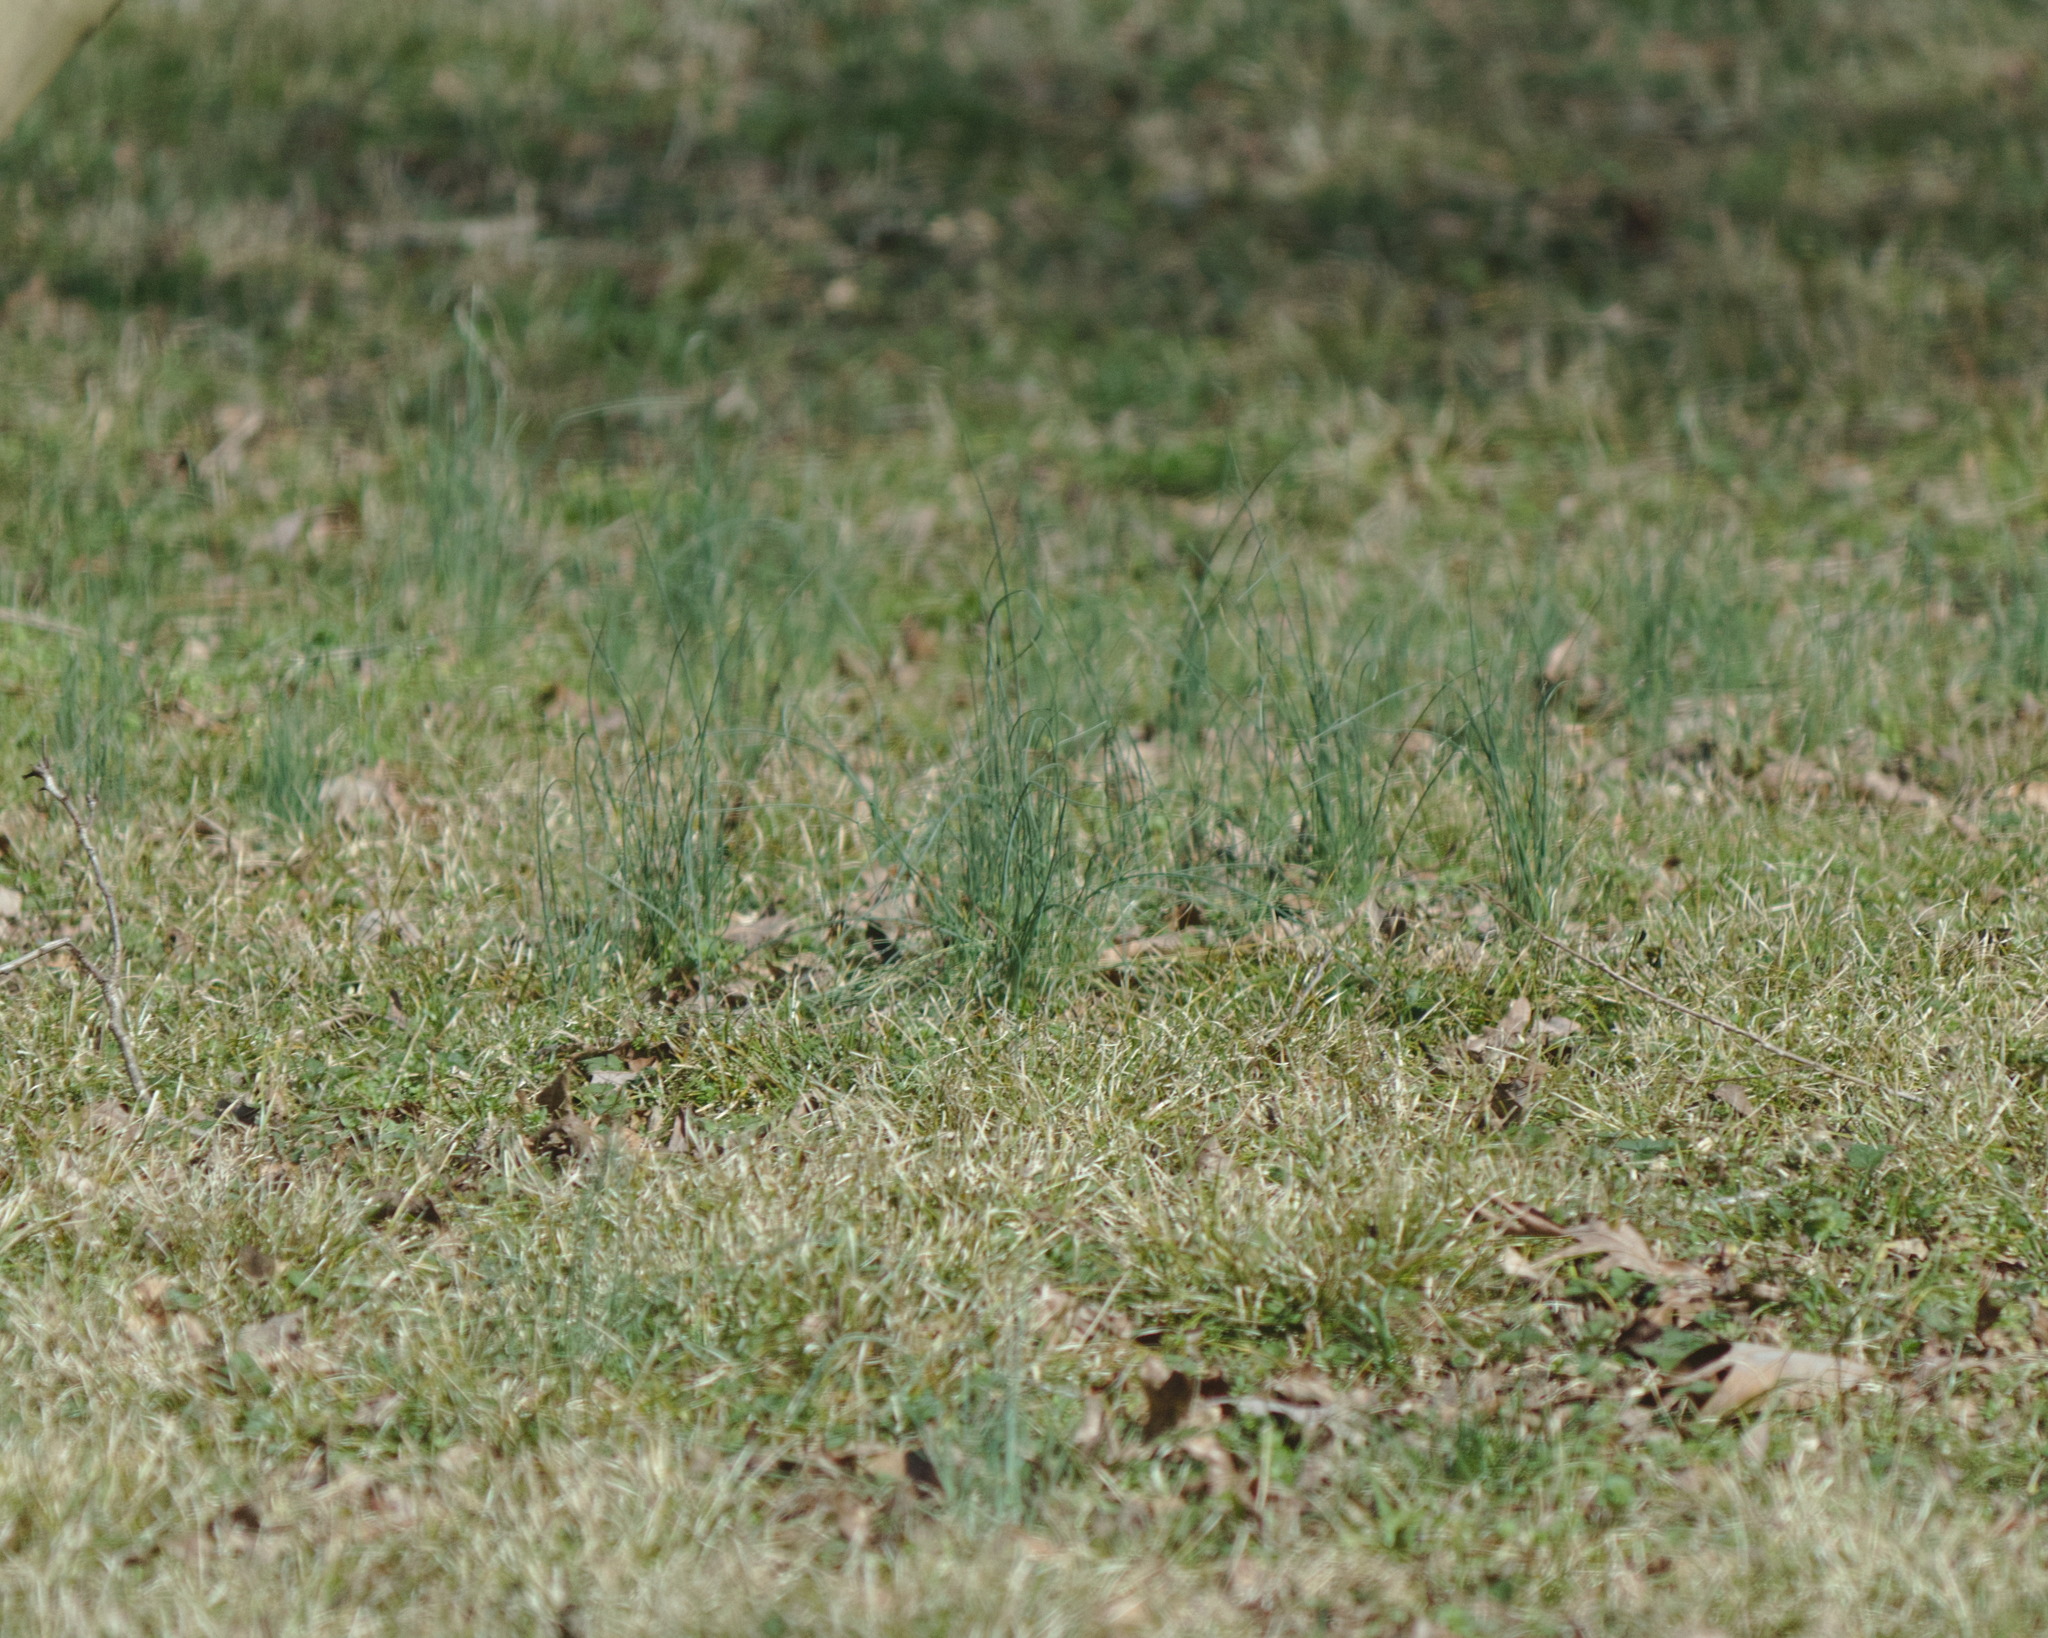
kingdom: Plantae
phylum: Tracheophyta
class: Liliopsida
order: Asparagales
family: Amaryllidaceae
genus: Allium
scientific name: Allium vineale
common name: Crow garlic
